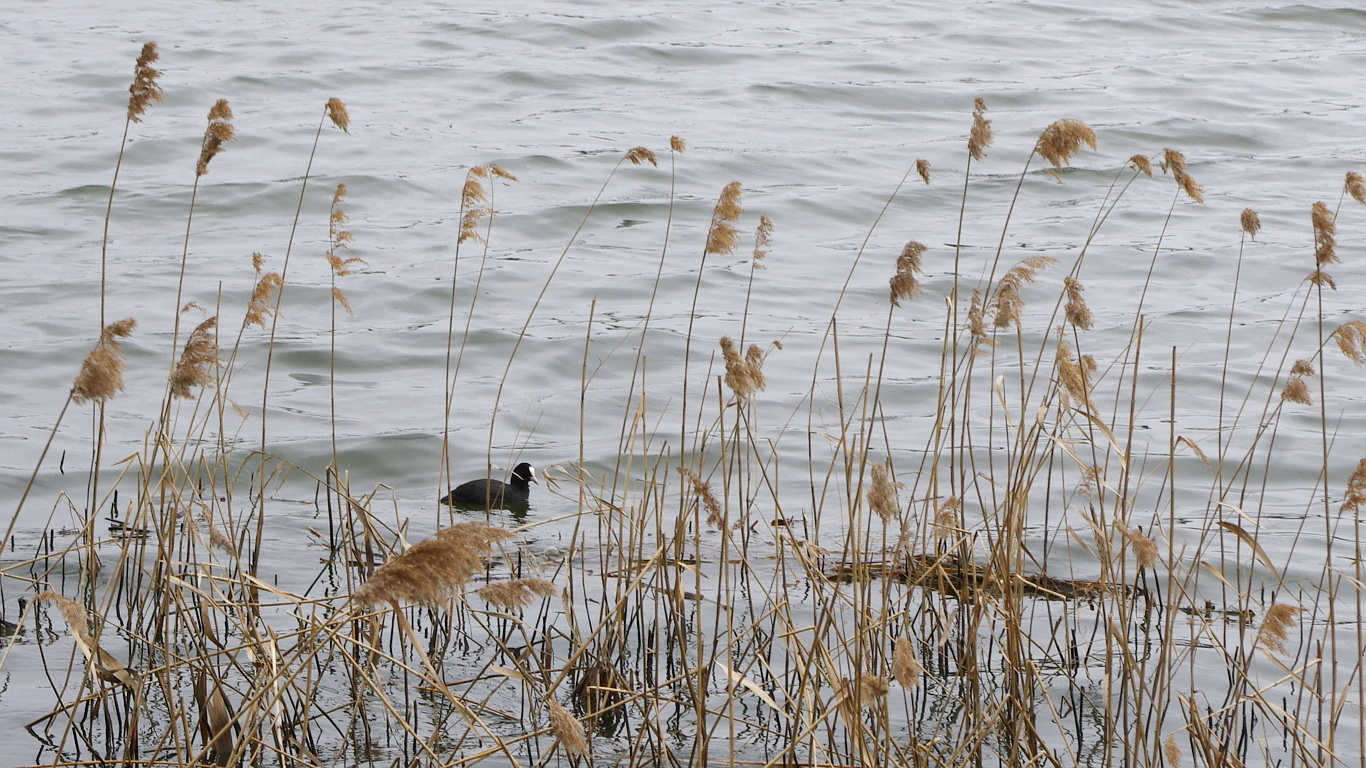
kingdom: Plantae
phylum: Tracheophyta
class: Liliopsida
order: Poales
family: Poaceae
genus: Phragmites
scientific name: Phragmites australis
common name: Common reed
